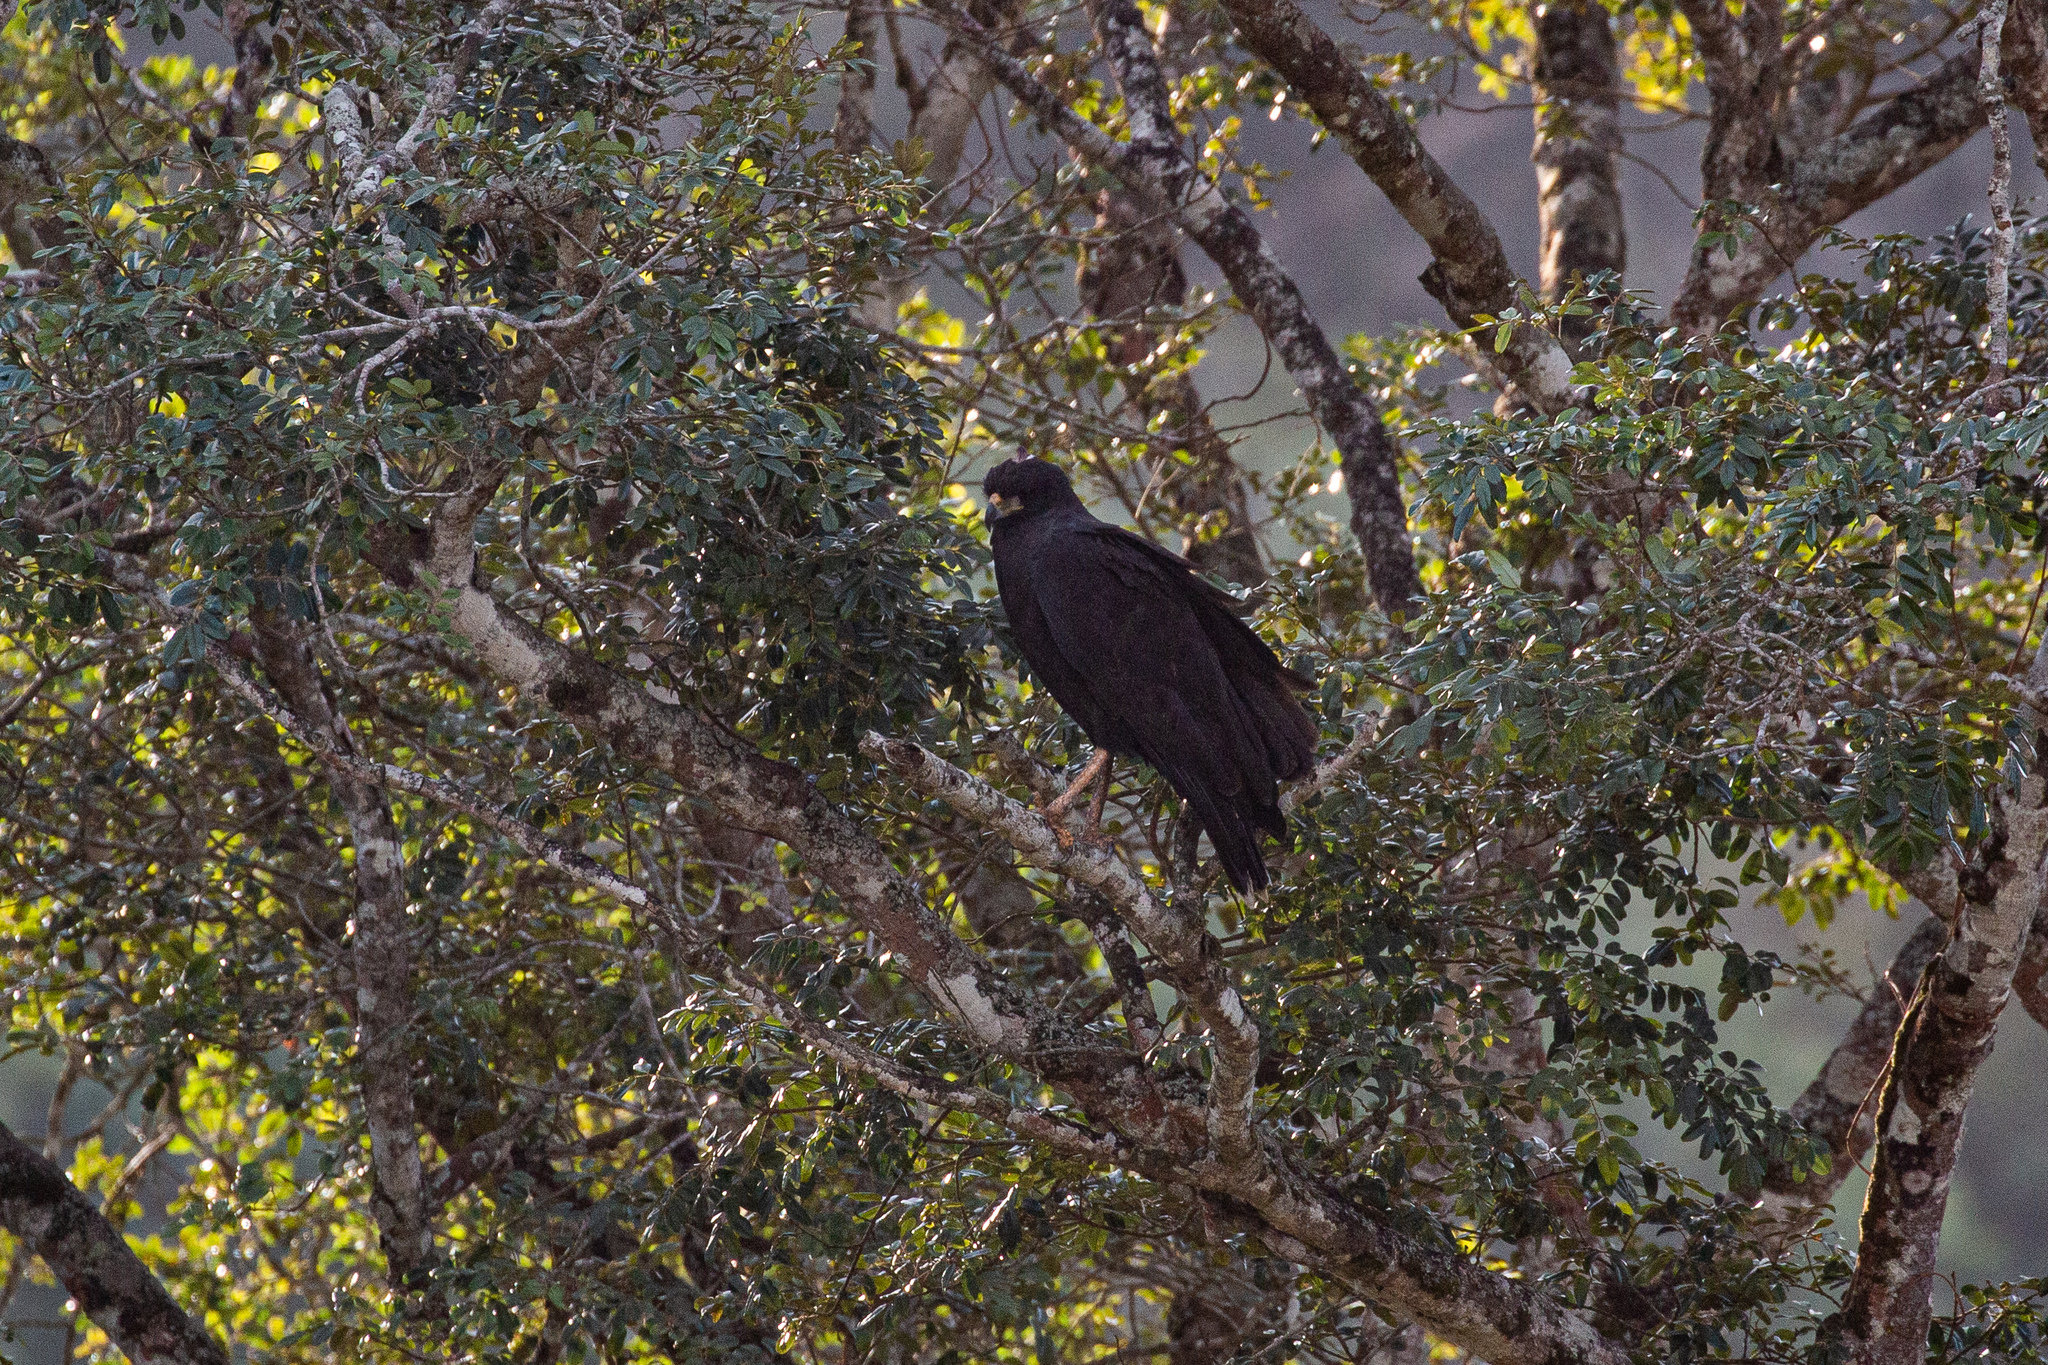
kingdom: Animalia
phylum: Chordata
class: Aves
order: Accipitriformes
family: Accipitridae
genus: Buteogallus
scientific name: Buteogallus urubitinga
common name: Great black hawk
